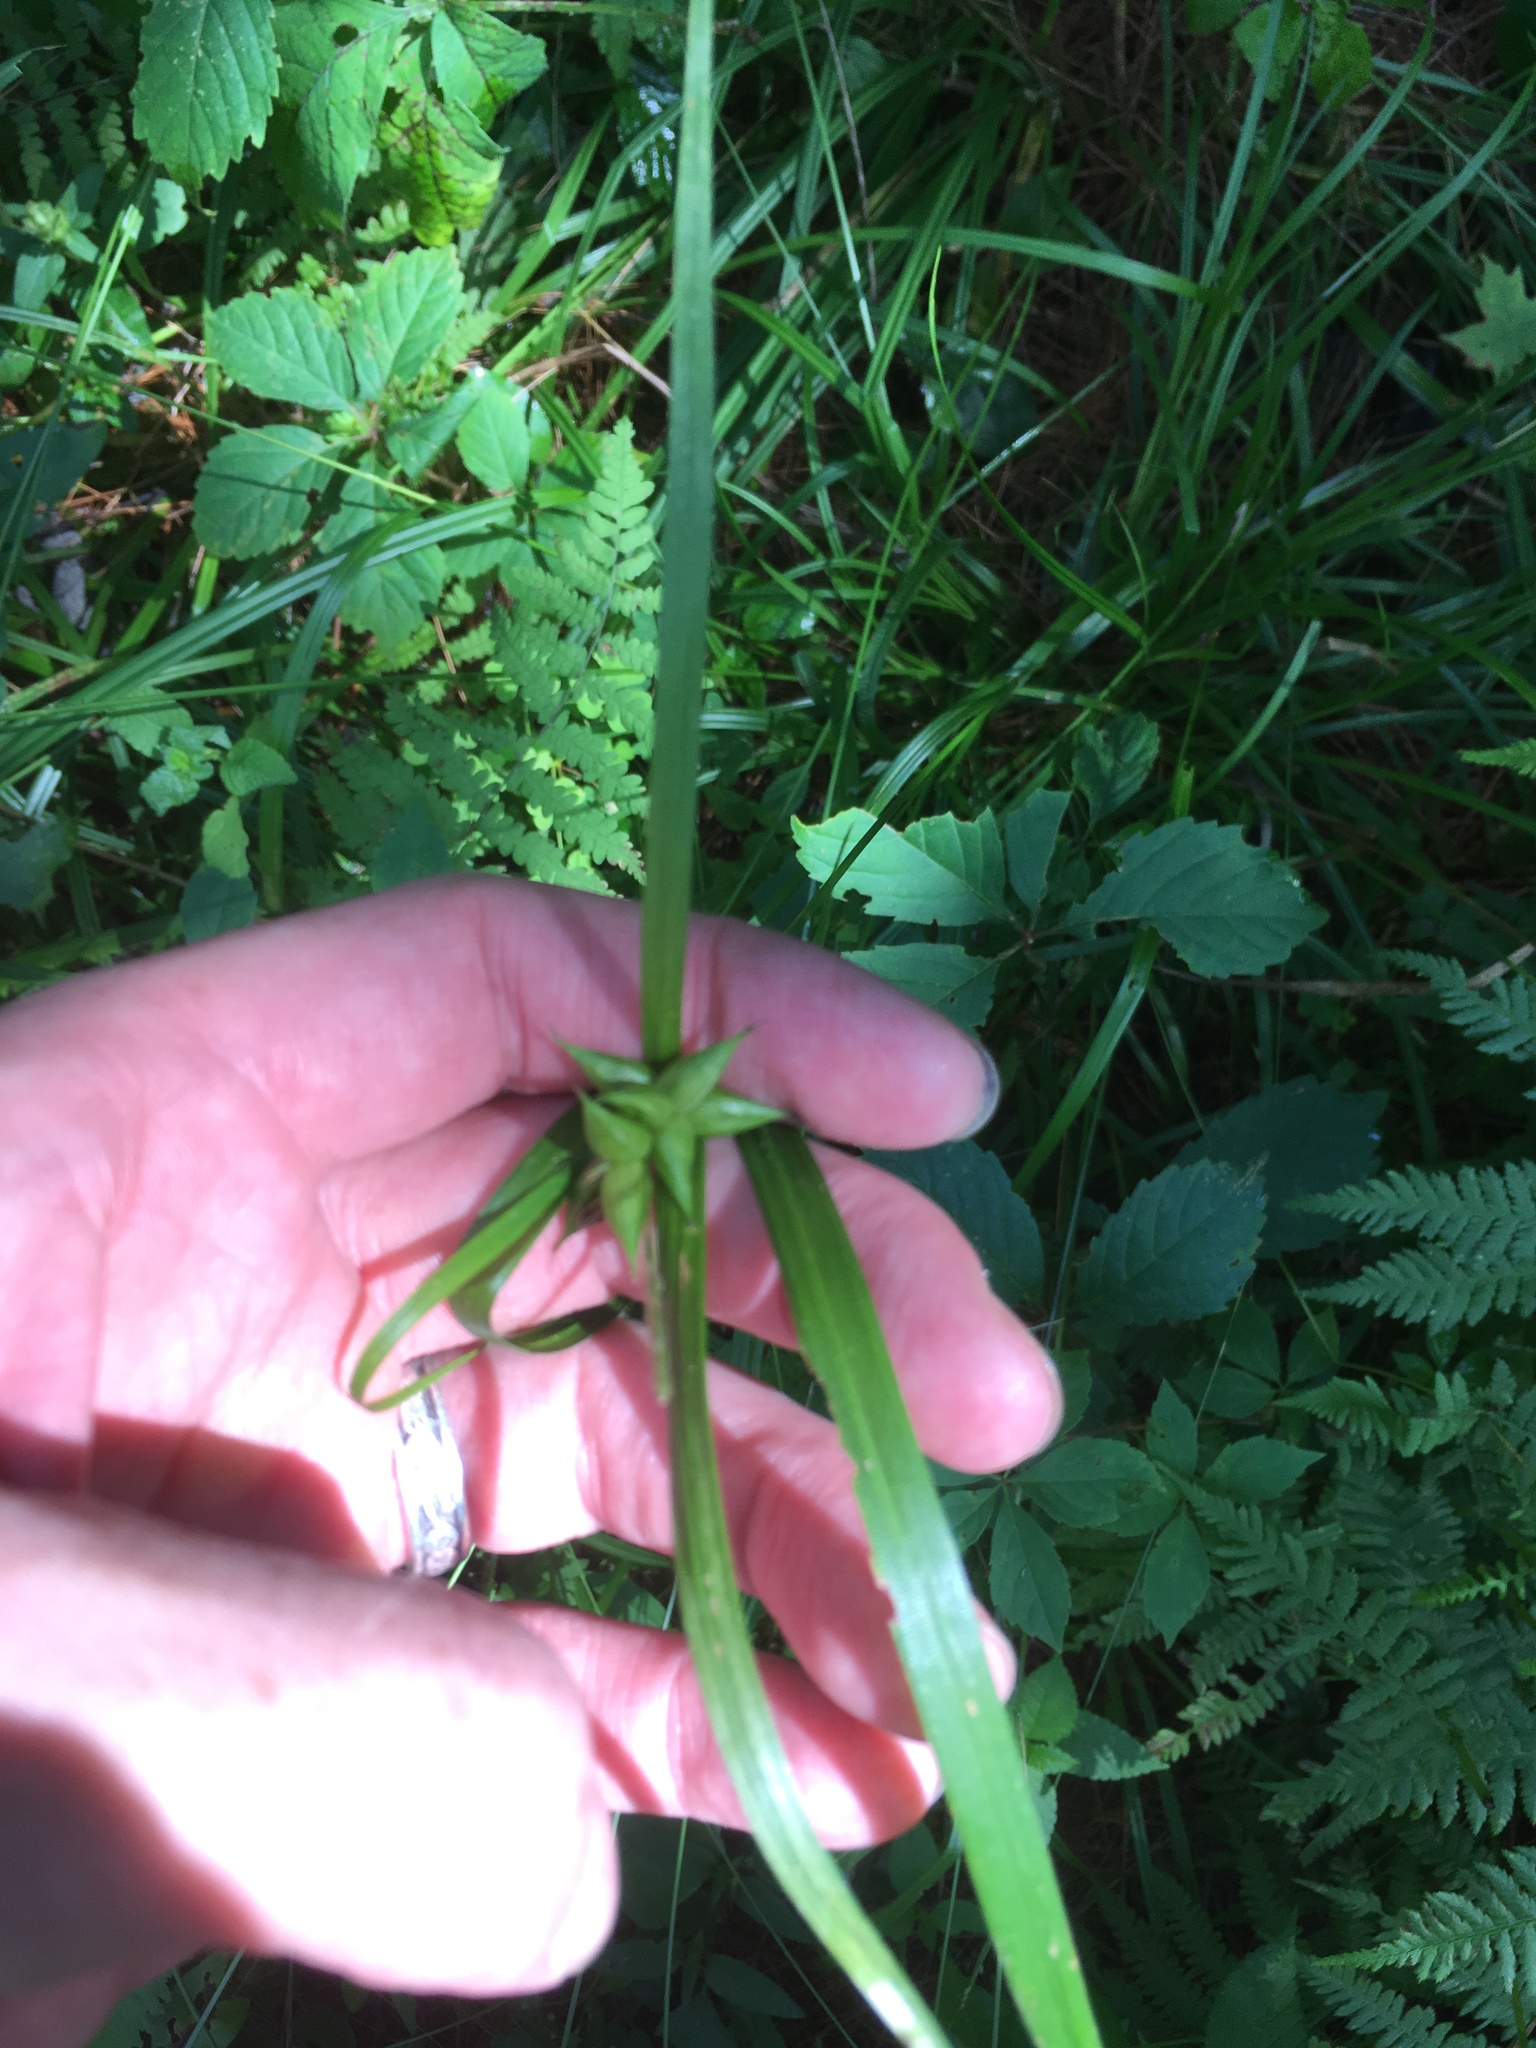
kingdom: Plantae
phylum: Tracheophyta
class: Liliopsida
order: Poales
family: Cyperaceae
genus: Carex
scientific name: Carex intumescens
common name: Greater bladder sedge
